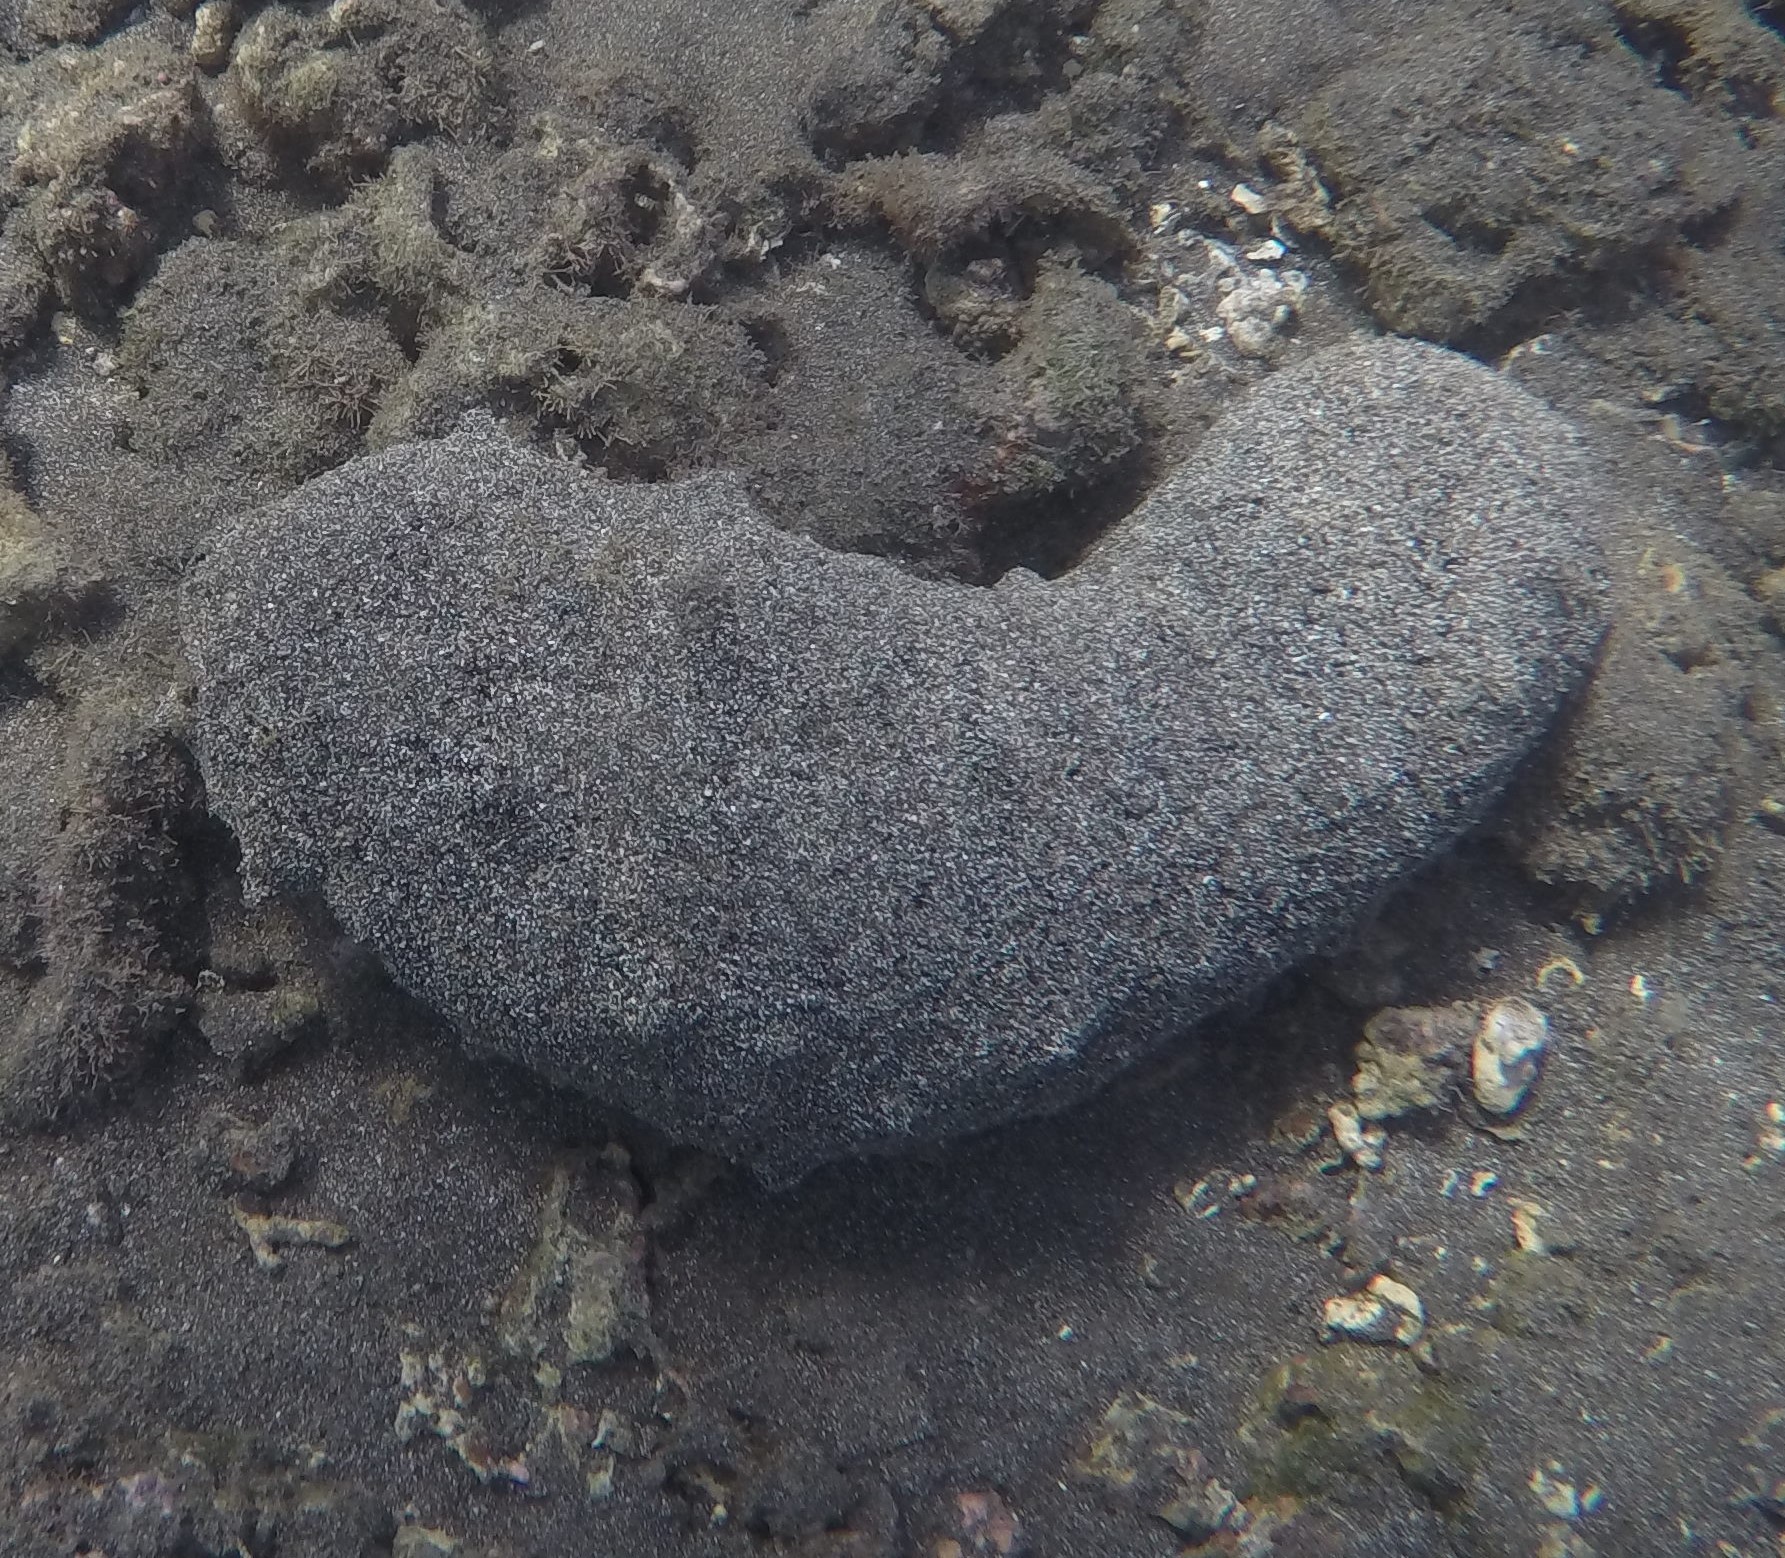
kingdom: Animalia
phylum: Echinodermata
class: Holothuroidea
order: Holothuriida
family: Holothuriidae
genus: Holothuria
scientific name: Holothuria whitmaei
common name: Black teatfish
